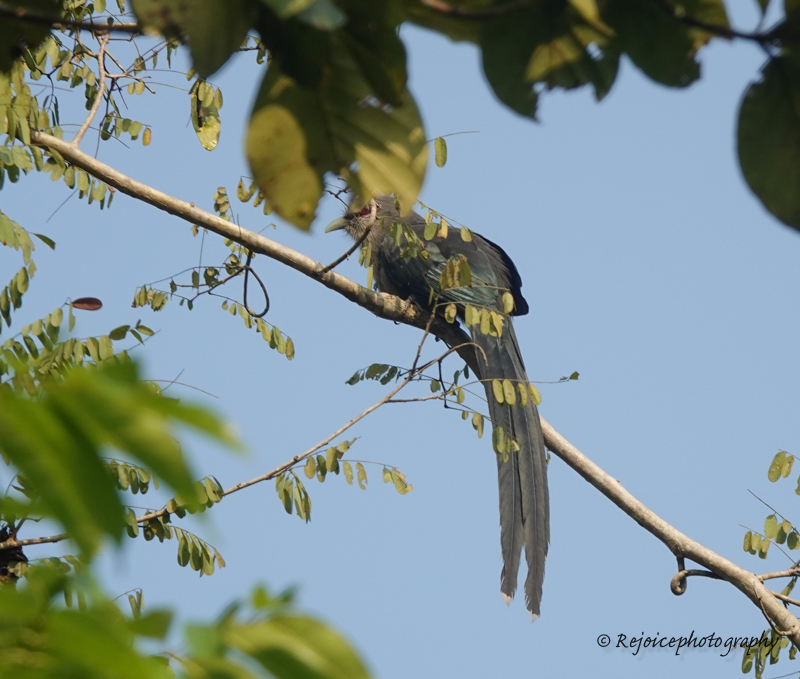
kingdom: Animalia
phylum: Chordata
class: Aves
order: Cuculiformes
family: Cuculidae
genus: Rhopodytes
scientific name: Rhopodytes tristis
